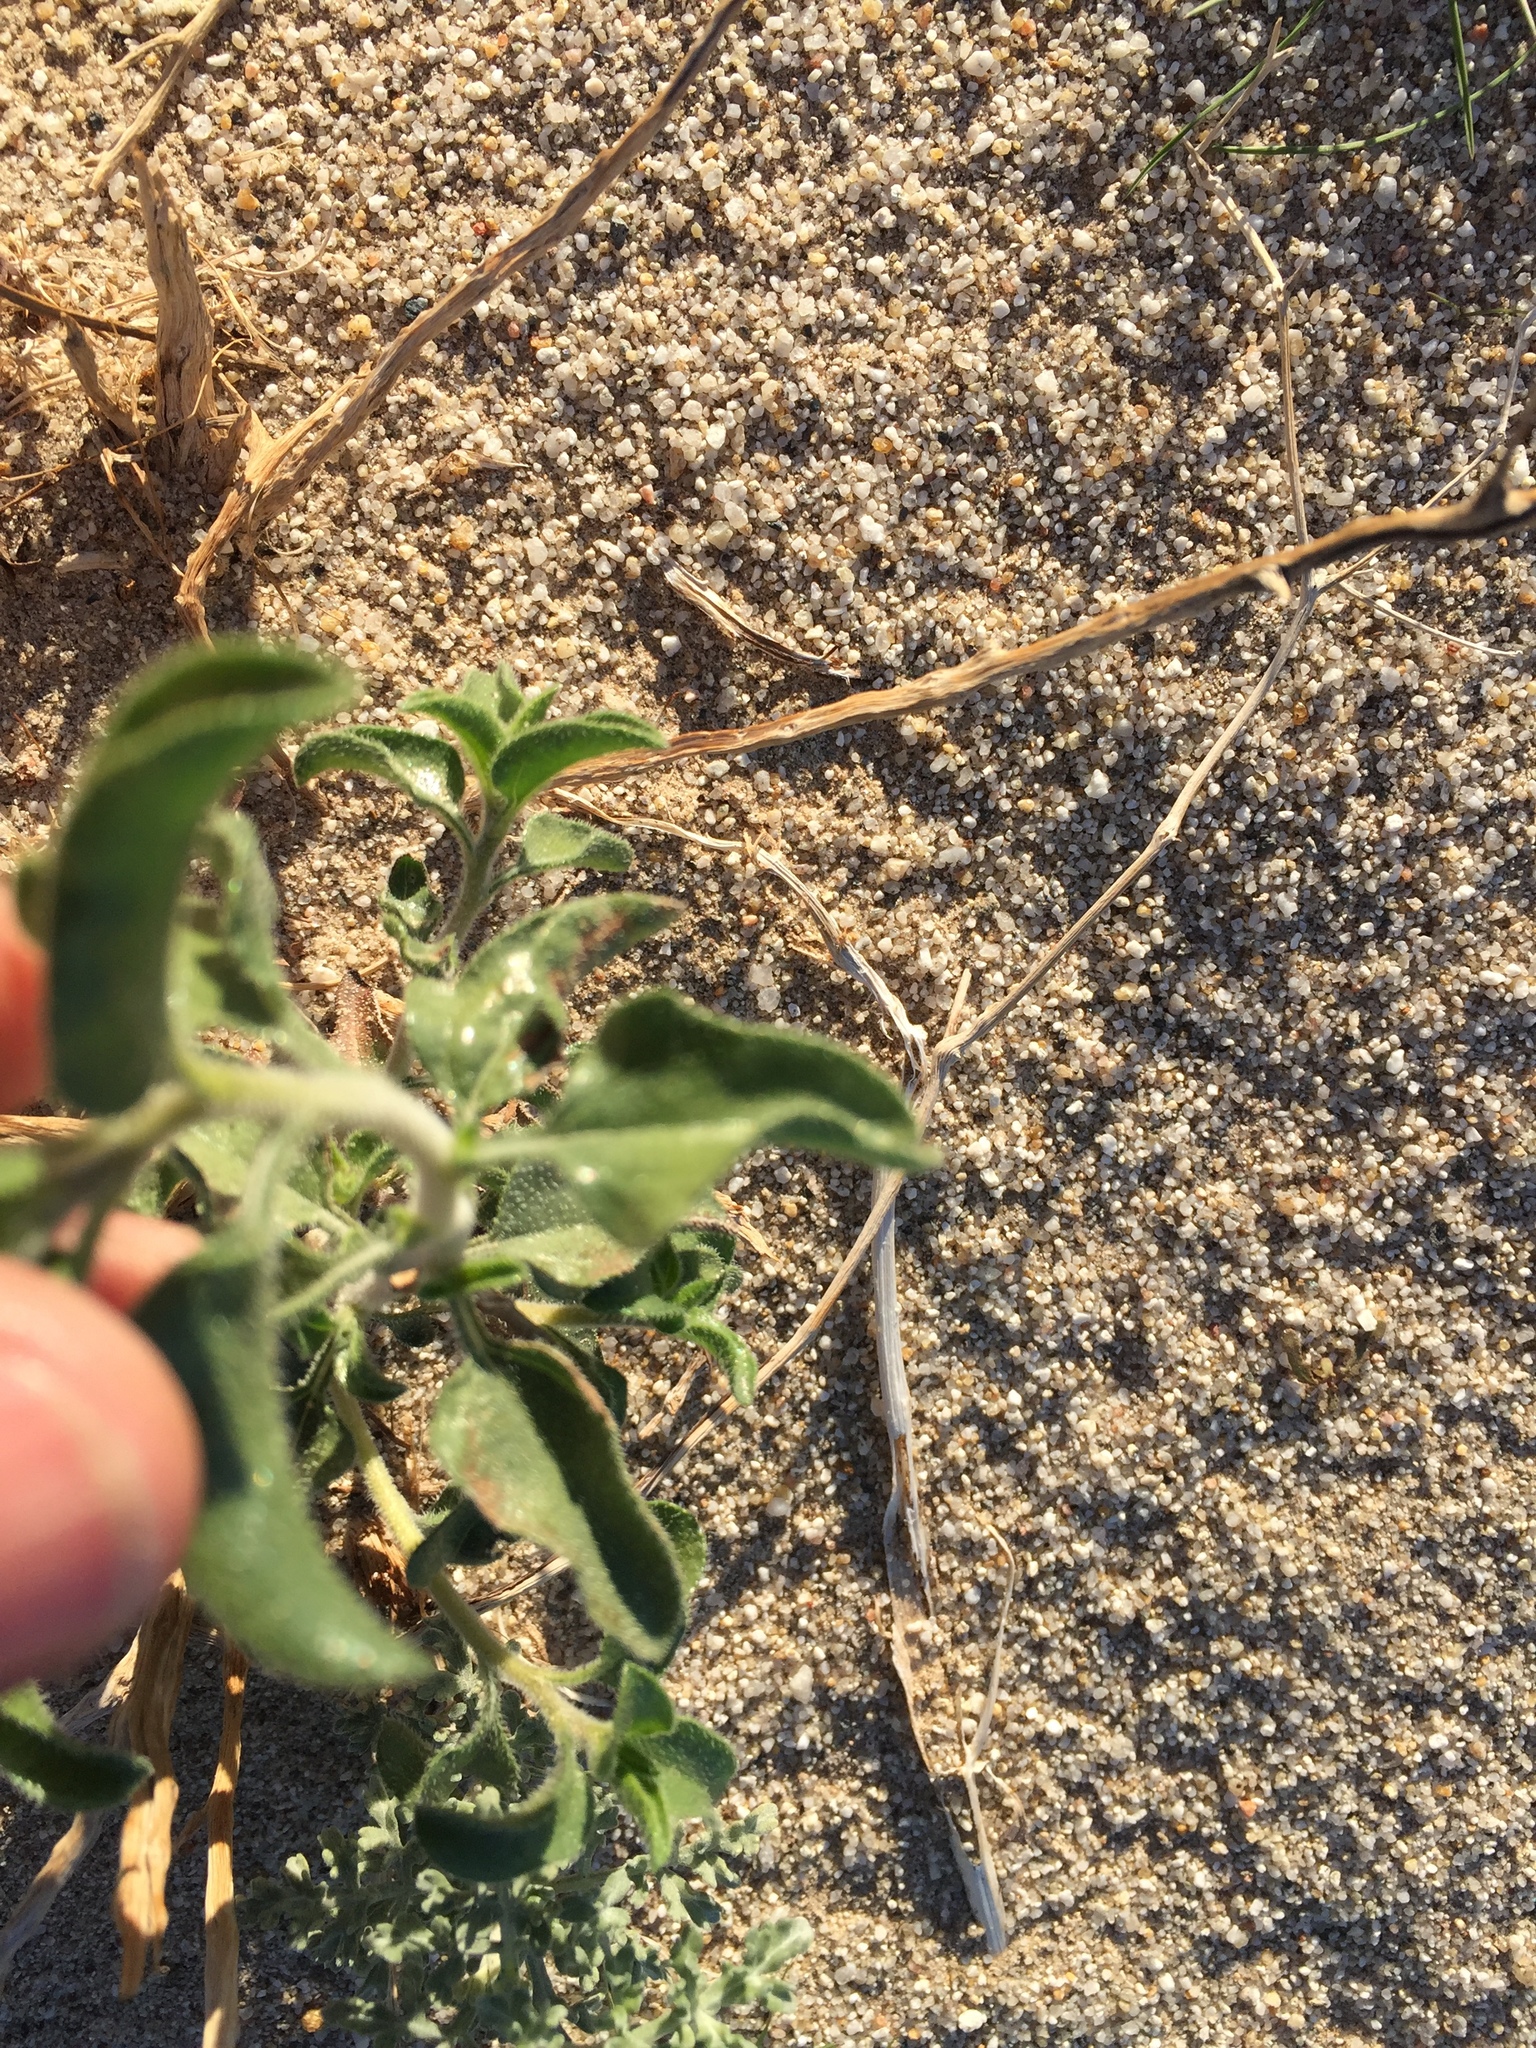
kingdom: Plantae
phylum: Tracheophyta
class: Magnoliopsida
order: Asterales
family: Asteraceae
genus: Encelia
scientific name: Encelia frutescens
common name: Bush encelia
